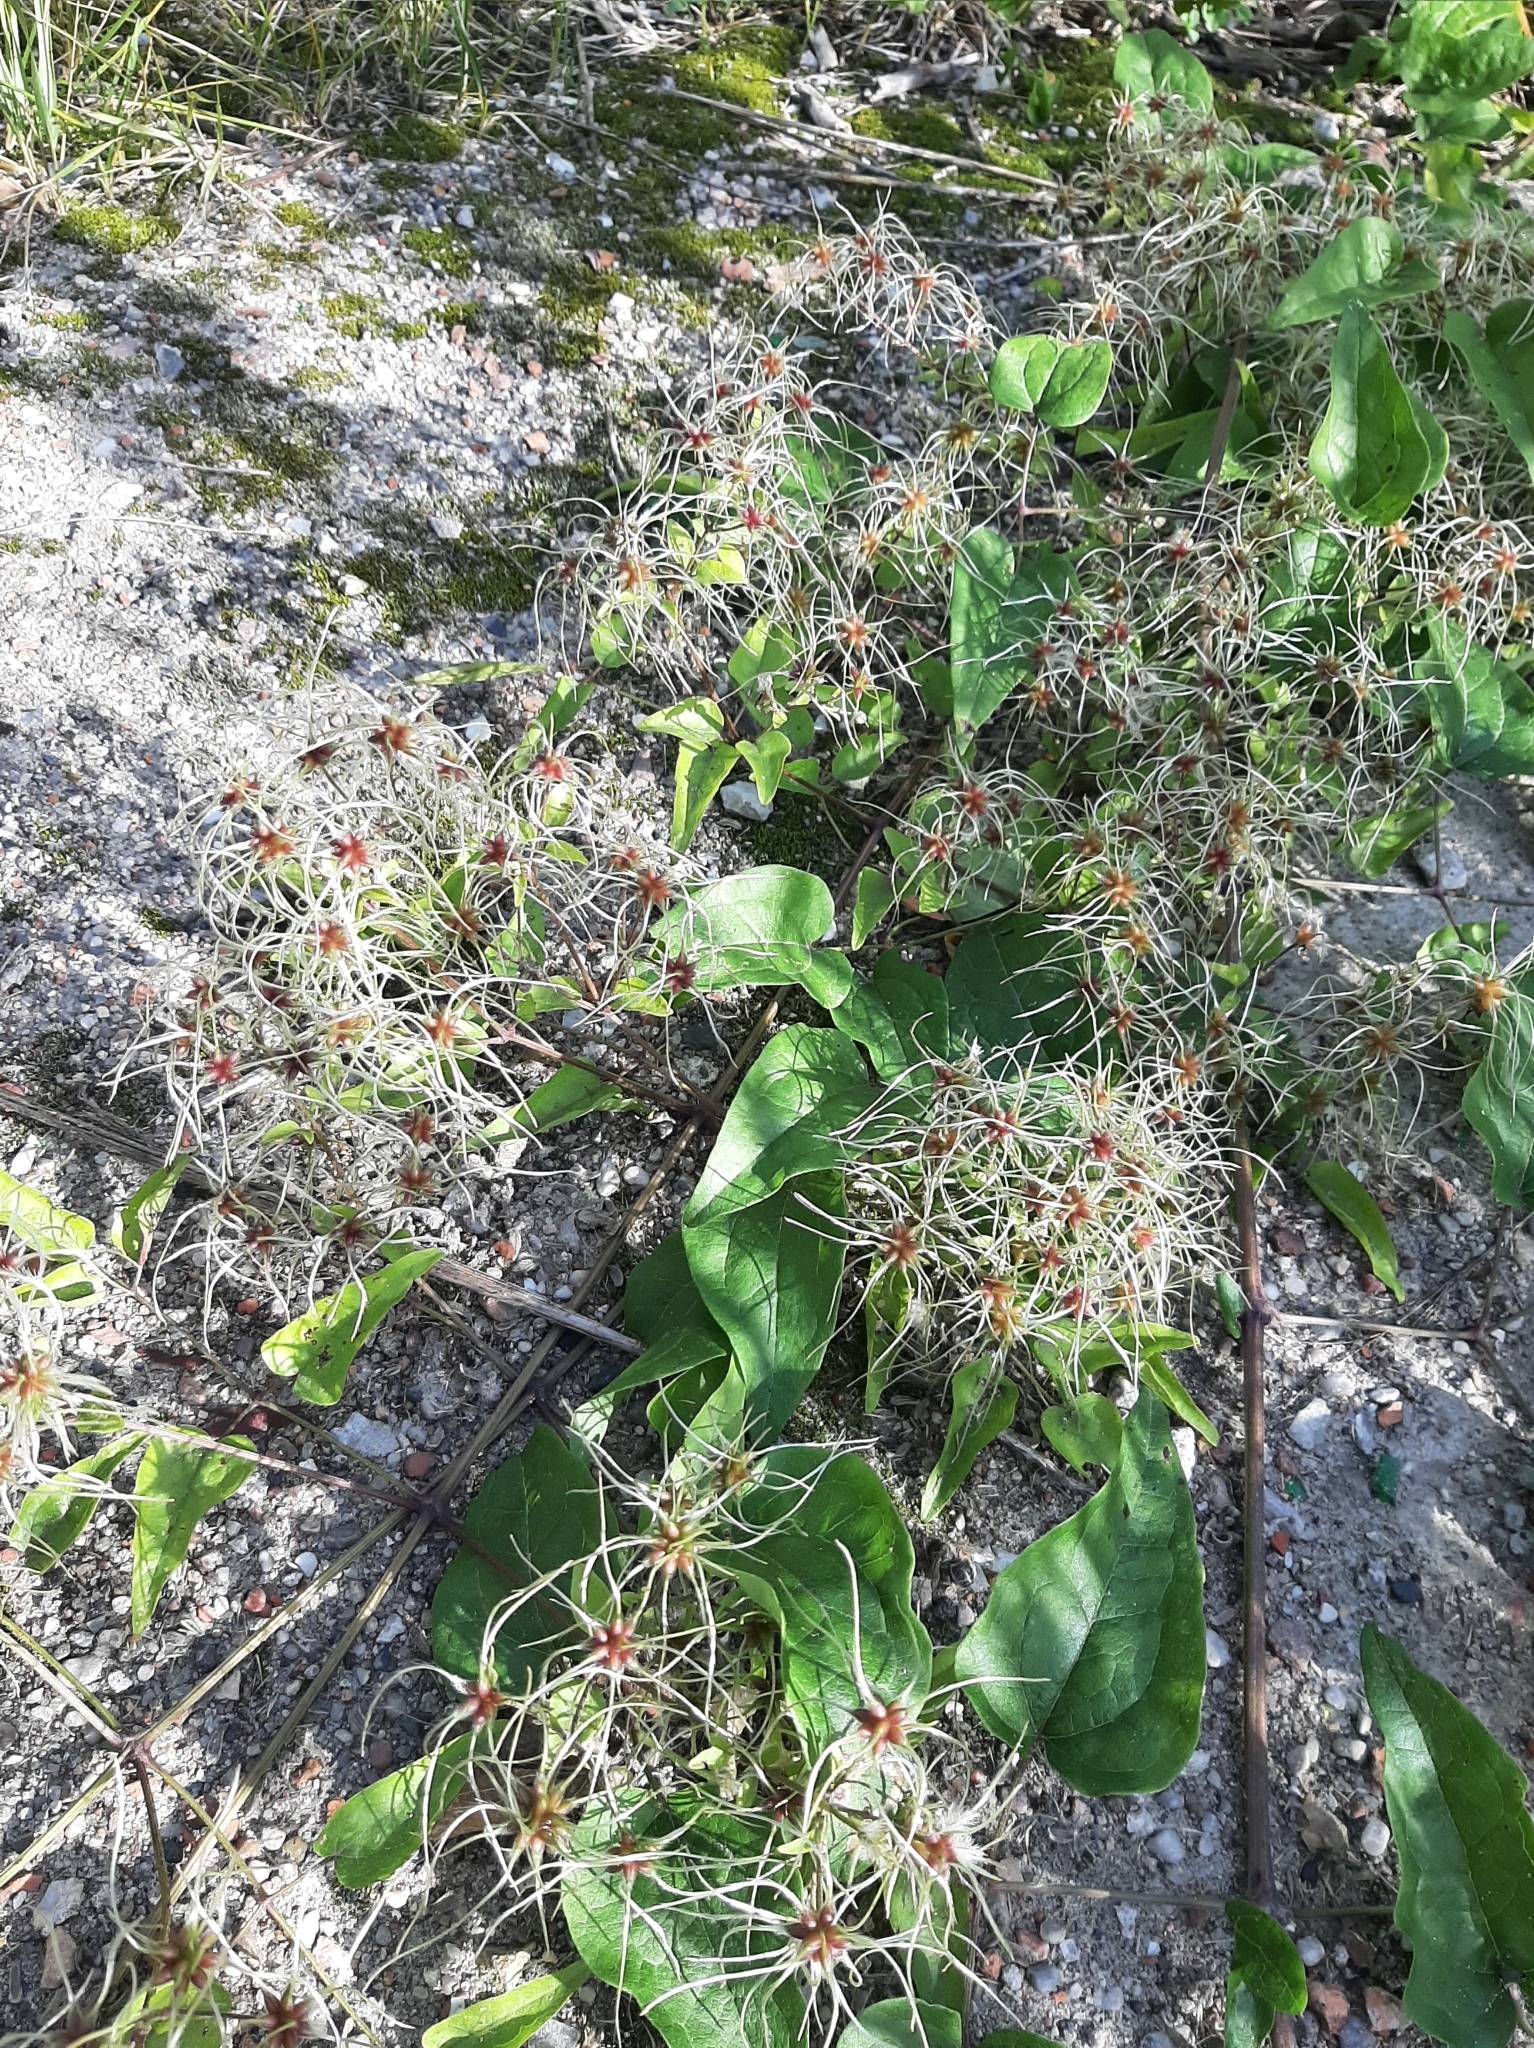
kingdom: Plantae
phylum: Tracheophyta
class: Magnoliopsida
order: Ranunculales
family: Ranunculaceae
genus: Clematis
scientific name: Clematis vitalba
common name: Evergreen clematis
